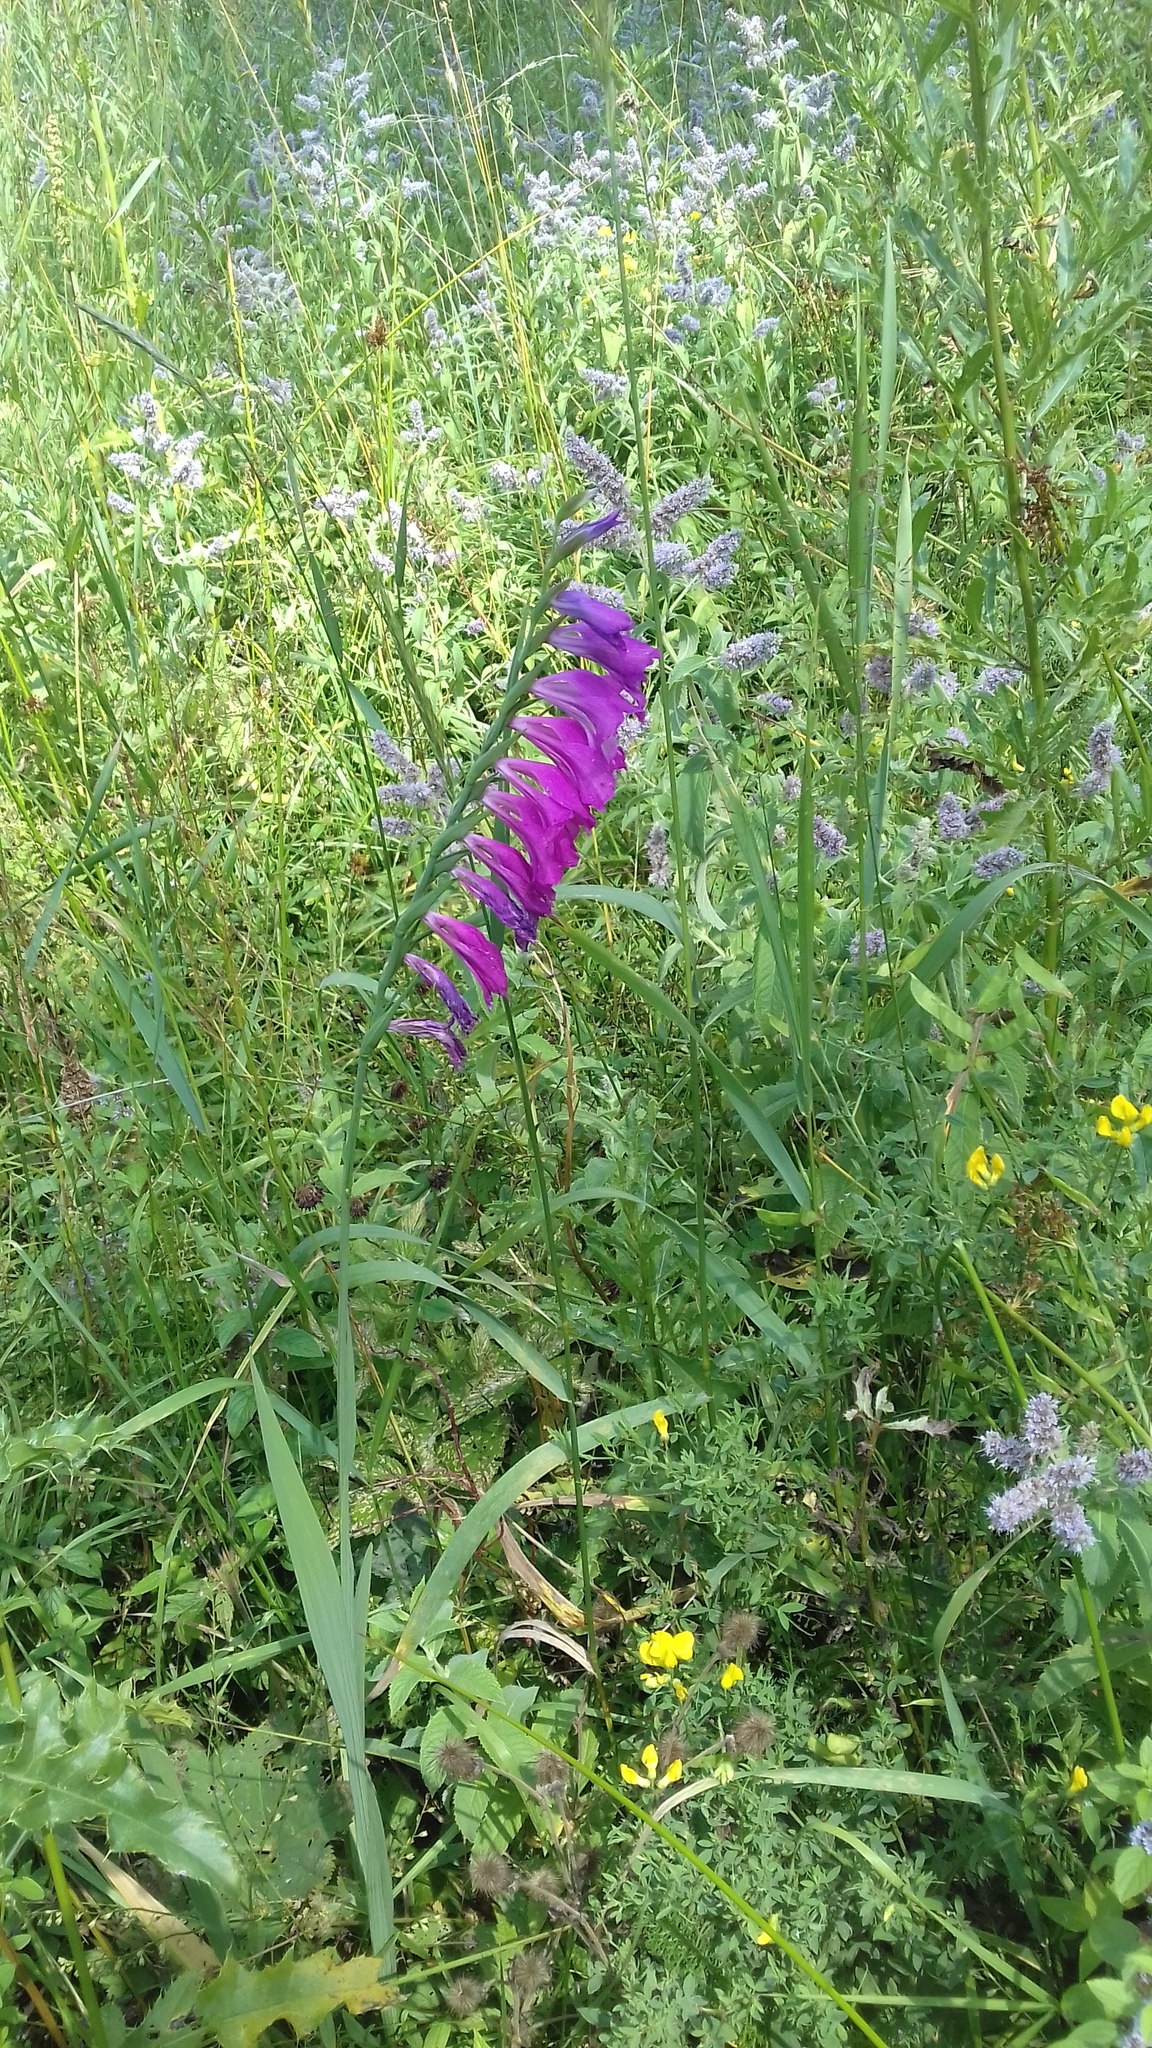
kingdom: Plantae
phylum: Tracheophyta
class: Liliopsida
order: Asparagales
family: Iridaceae
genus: Gladiolus
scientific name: Gladiolus imbricatus
